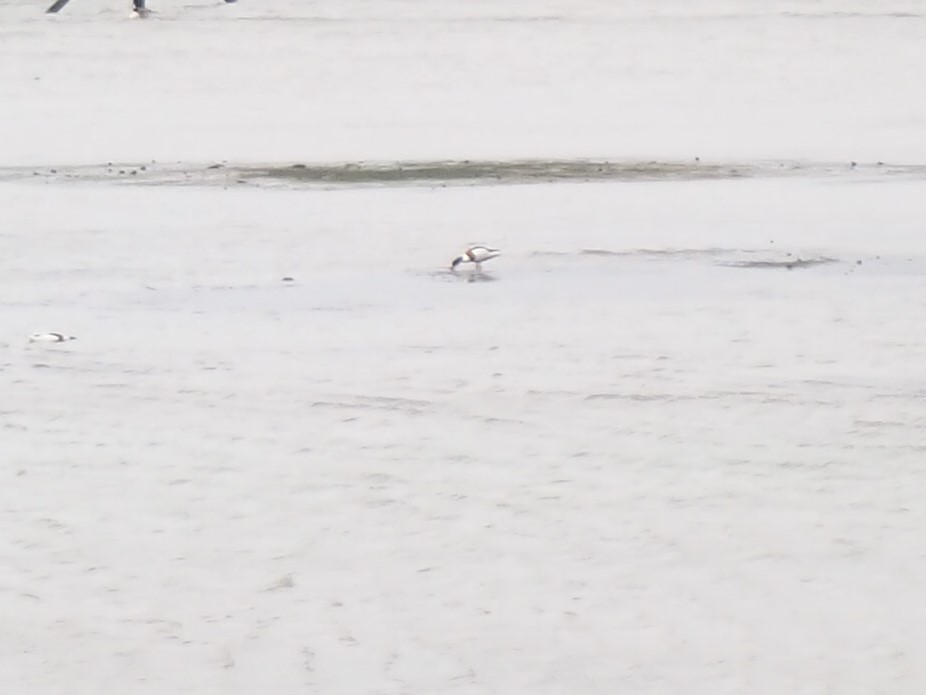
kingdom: Animalia
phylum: Chordata
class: Aves
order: Anseriformes
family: Anatidae
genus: Tadorna
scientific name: Tadorna tadorna
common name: Common shelduck
